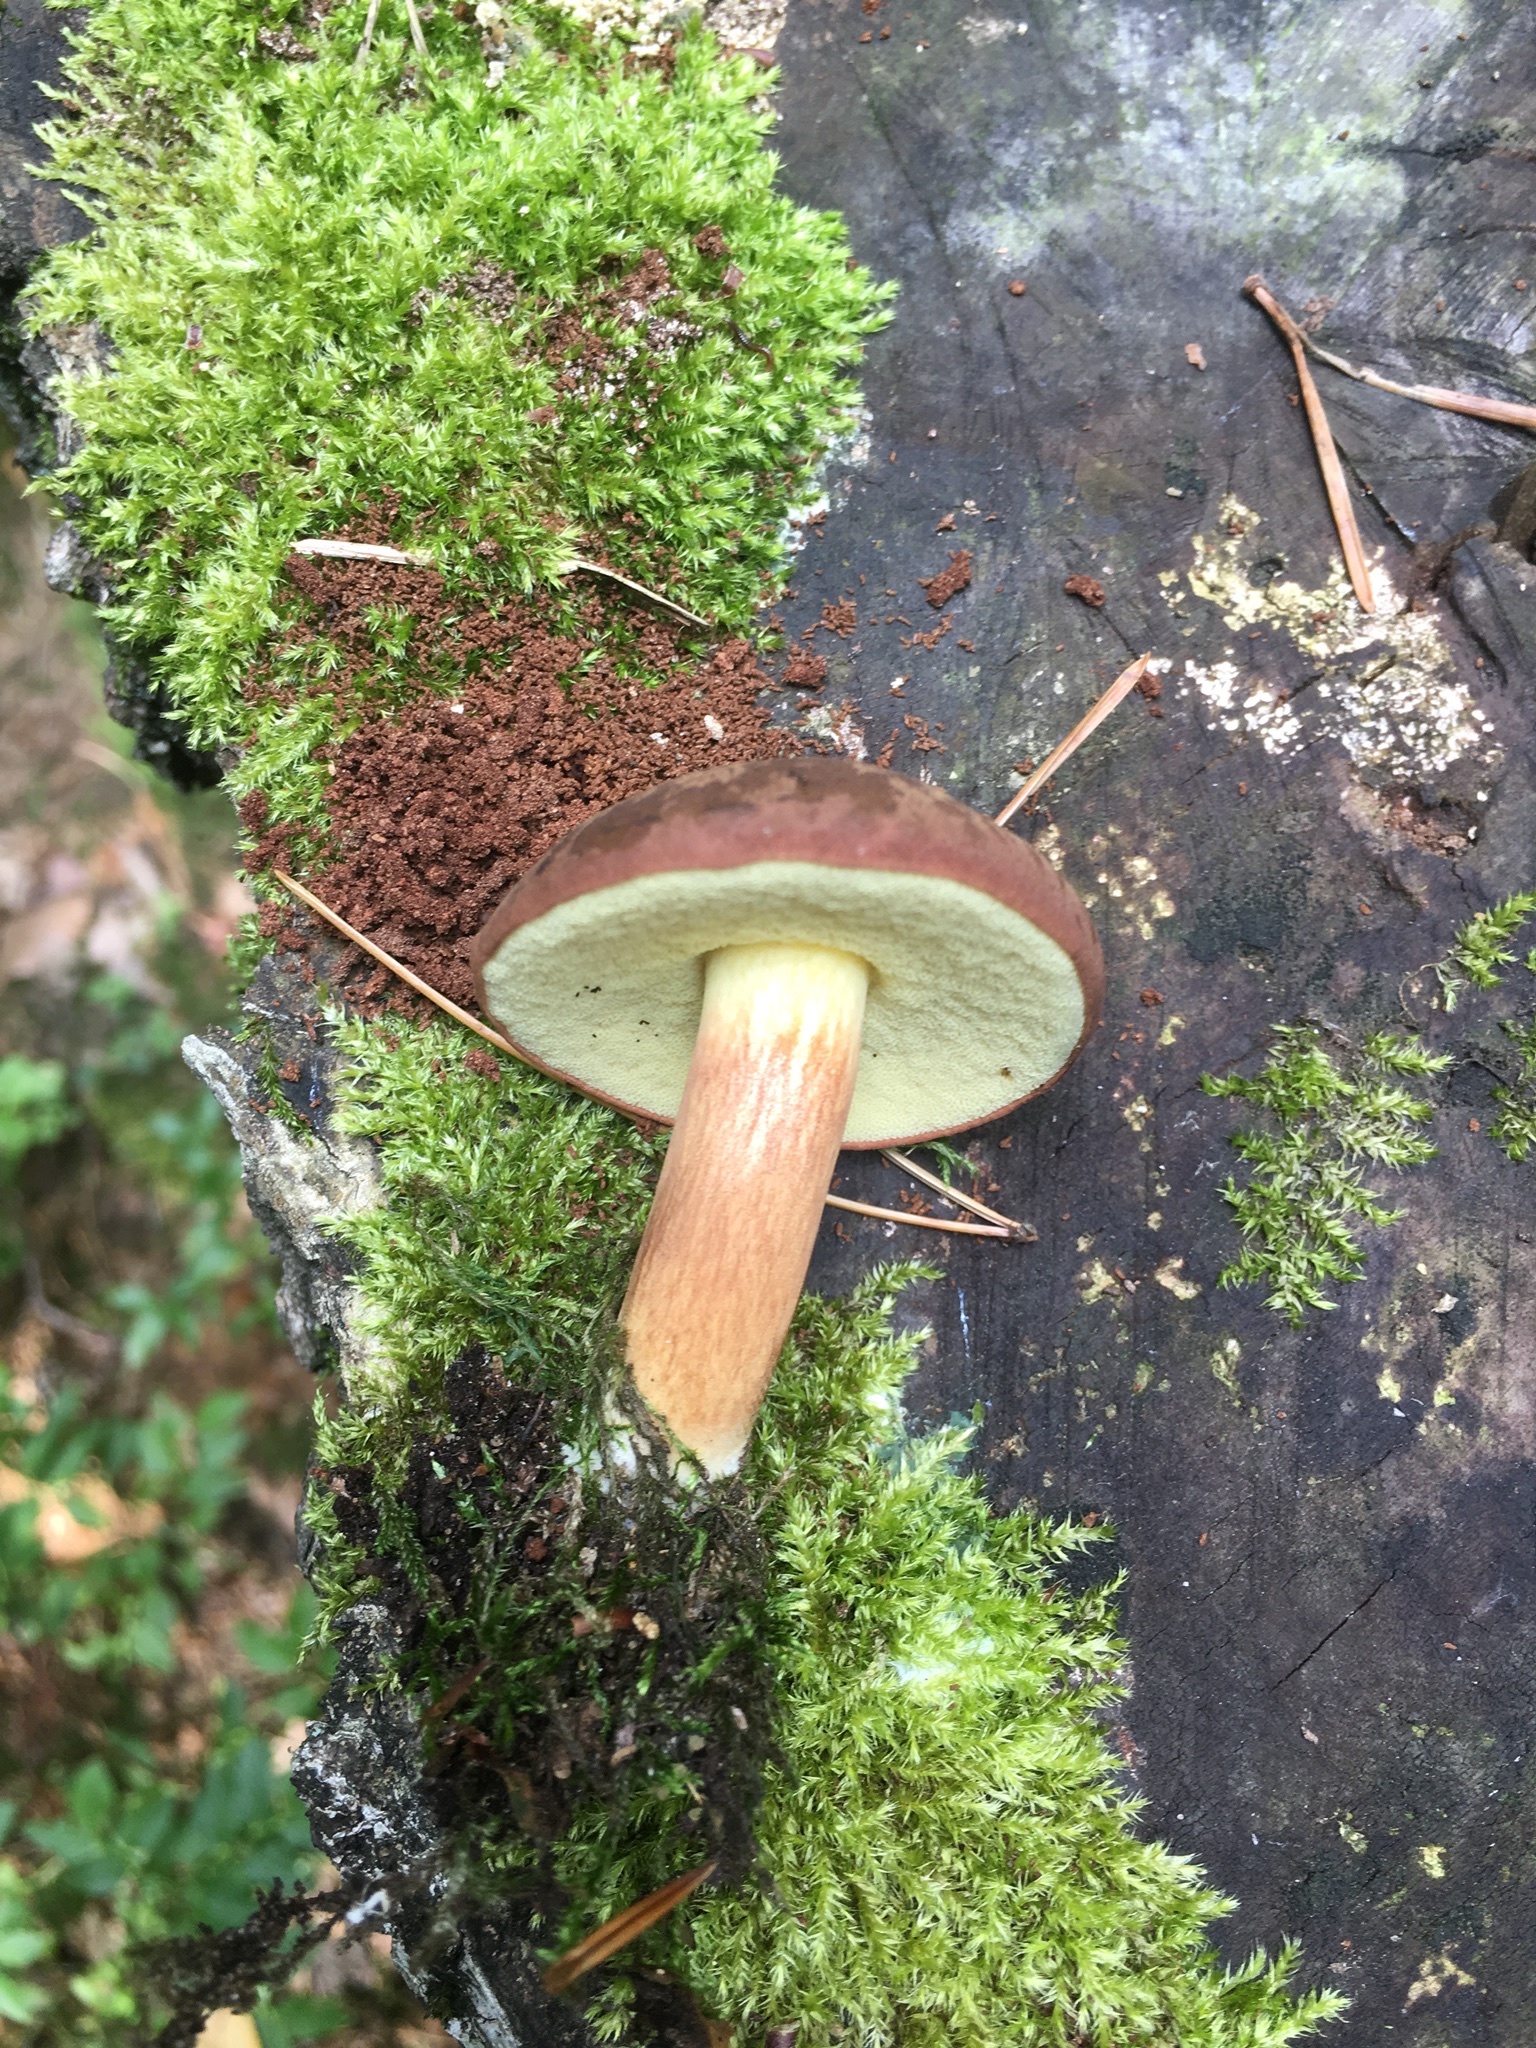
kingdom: Fungi
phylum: Basidiomycota
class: Agaricomycetes
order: Boletales
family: Boletaceae
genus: Imleria
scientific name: Imleria badia
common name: Bay bolete
